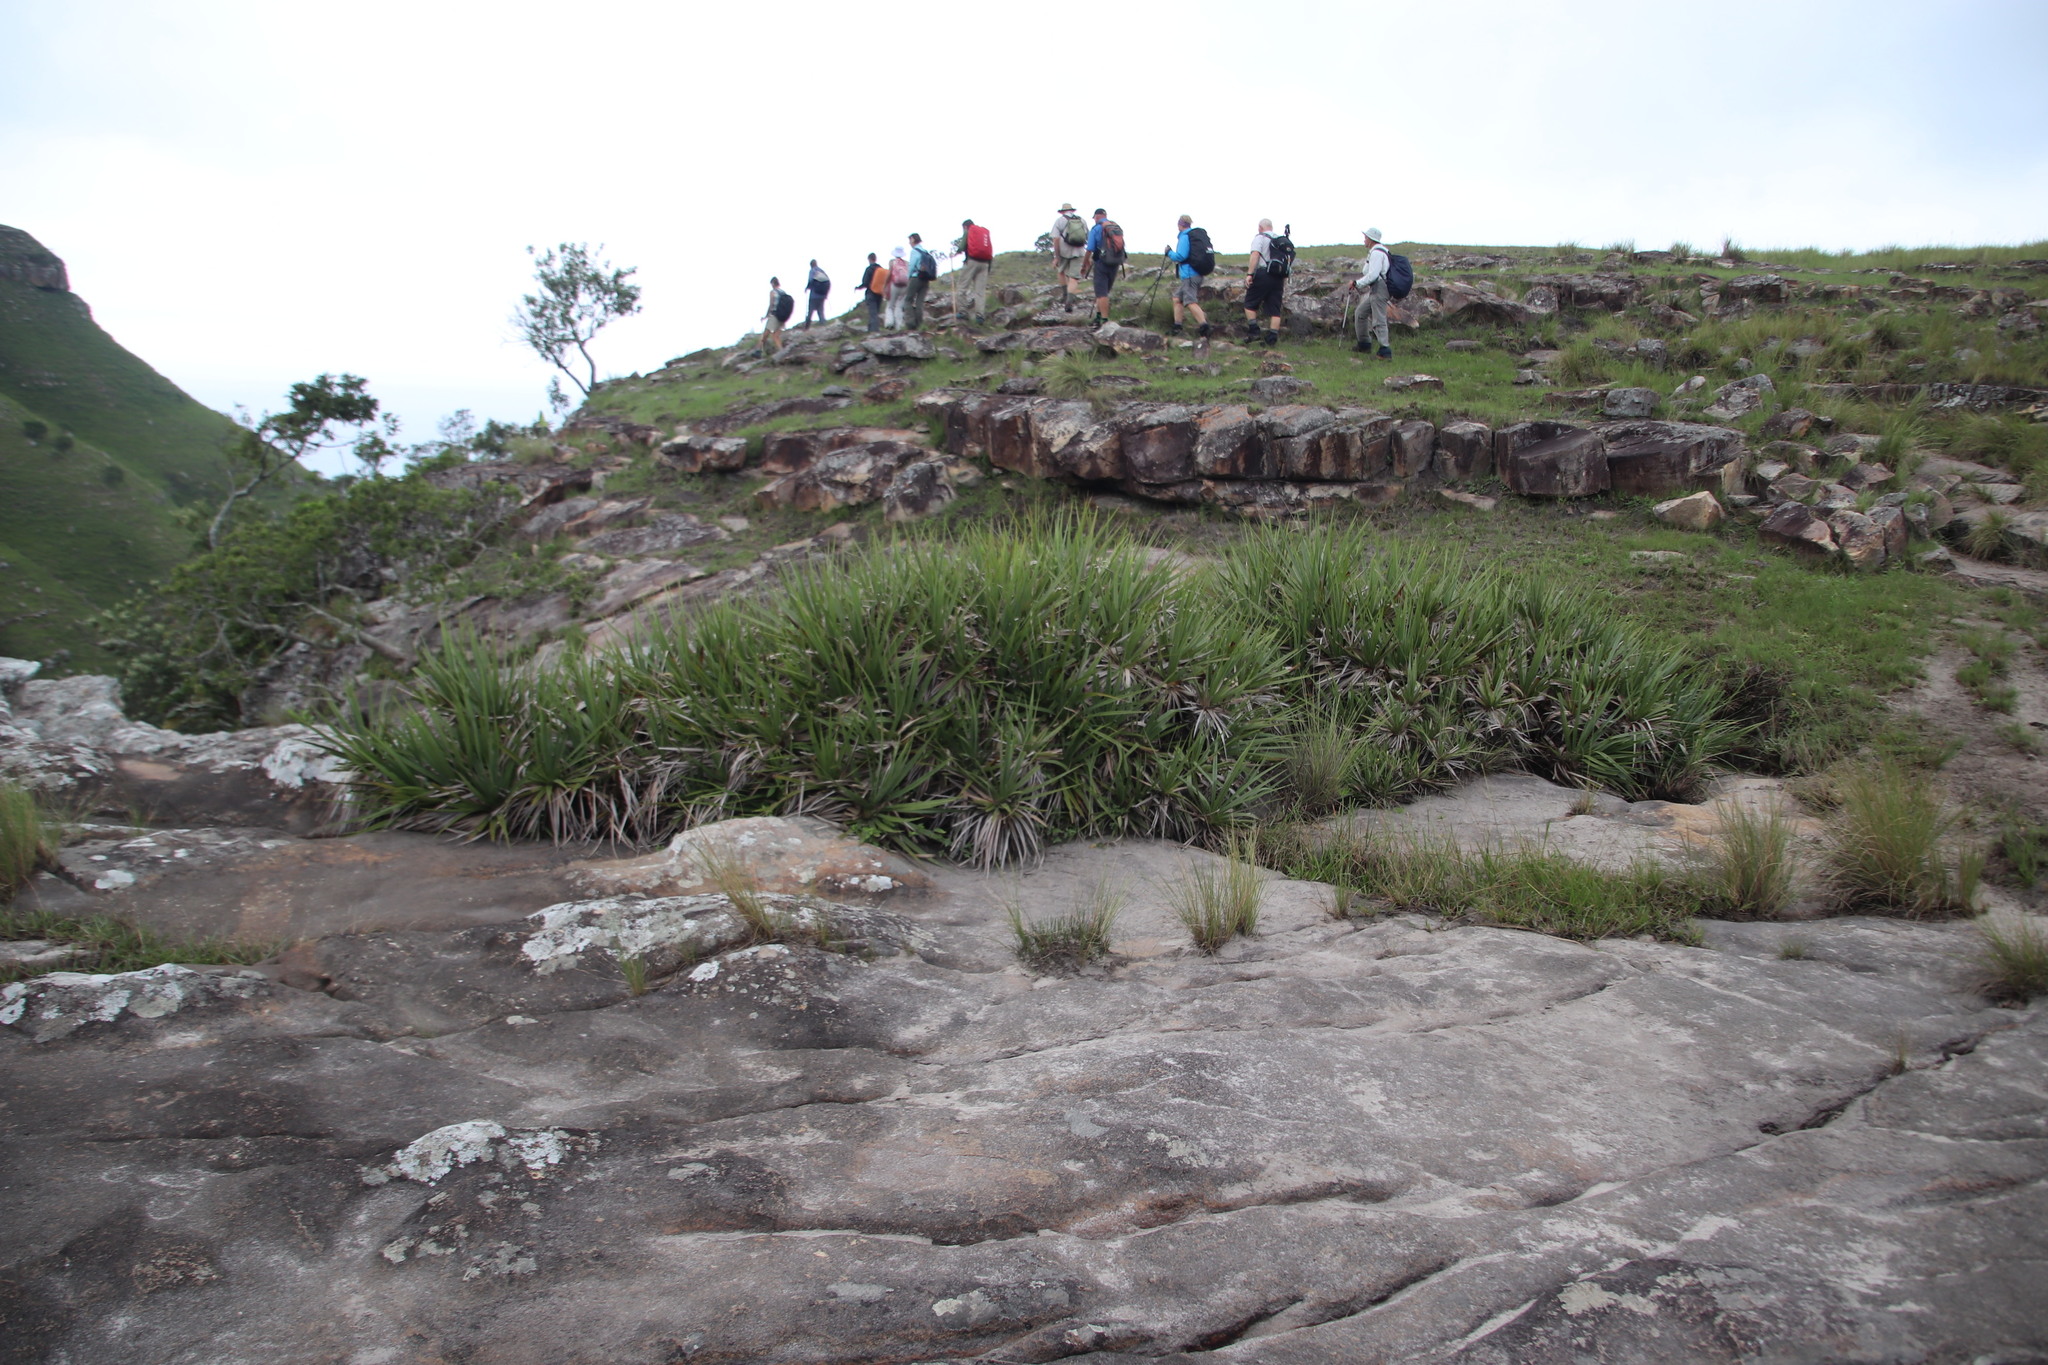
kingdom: Plantae
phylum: Tracheophyta
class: Liliopsida
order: Poales
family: Thurniaceae
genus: Prionium
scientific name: Prionium serratum
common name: Palmiet
